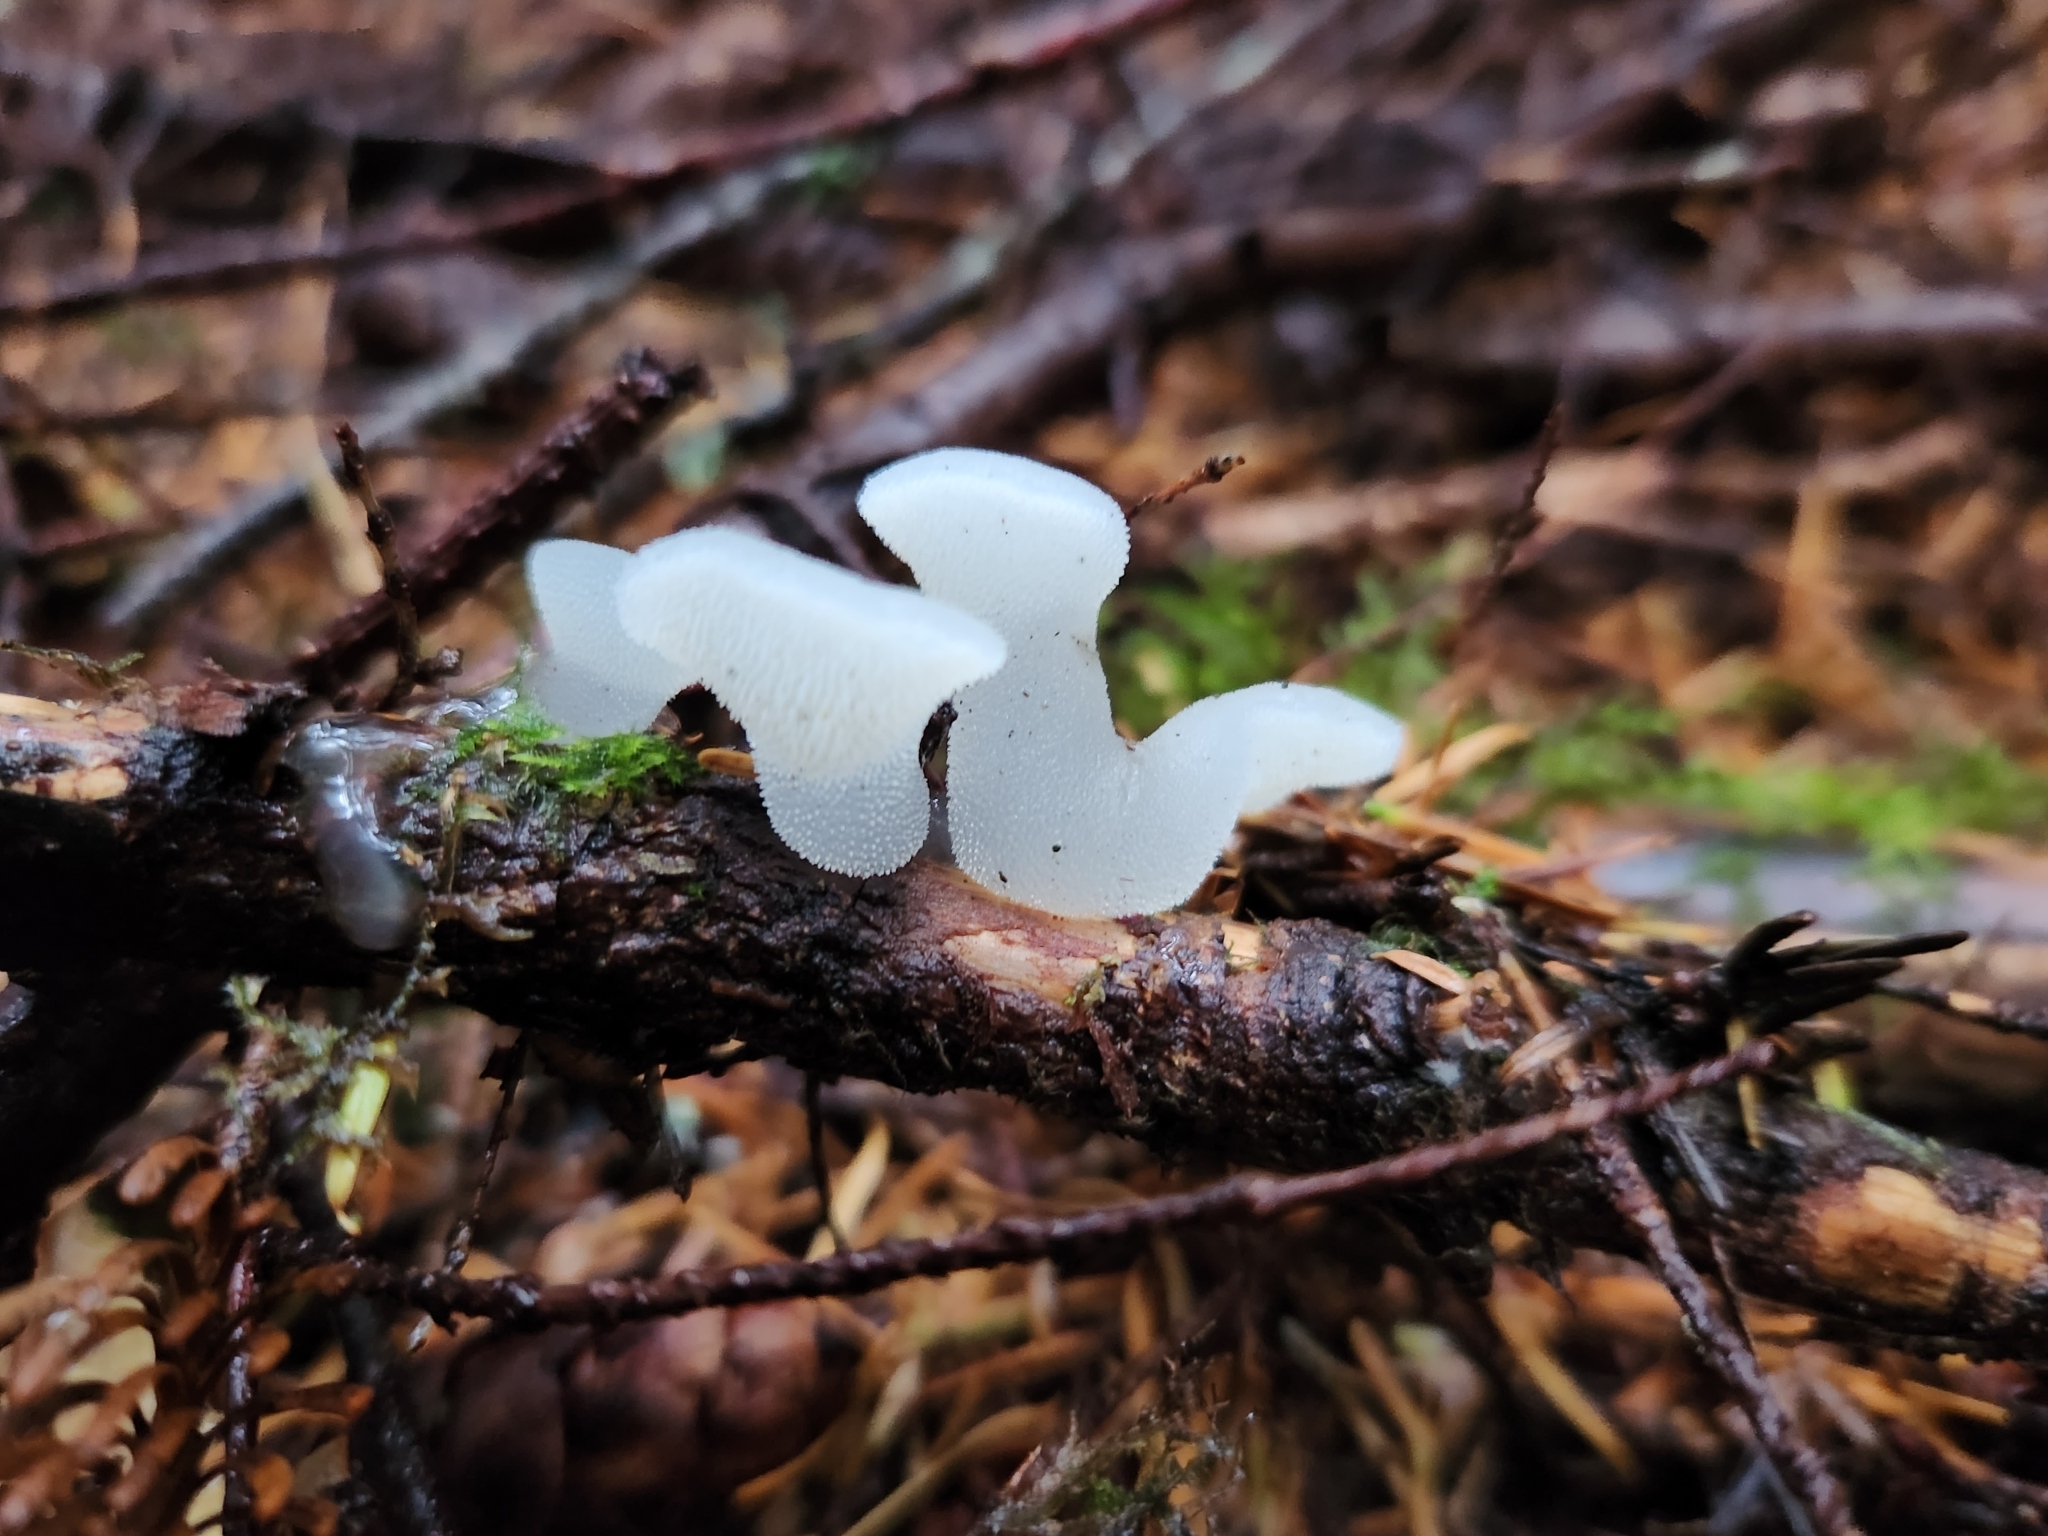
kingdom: Fungi
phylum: Basidiomycota
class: Agaricomycetes
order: Auriculariales
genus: Pseudohydnum
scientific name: Pseudohydnum gelatinosum
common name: Jelly tongue
